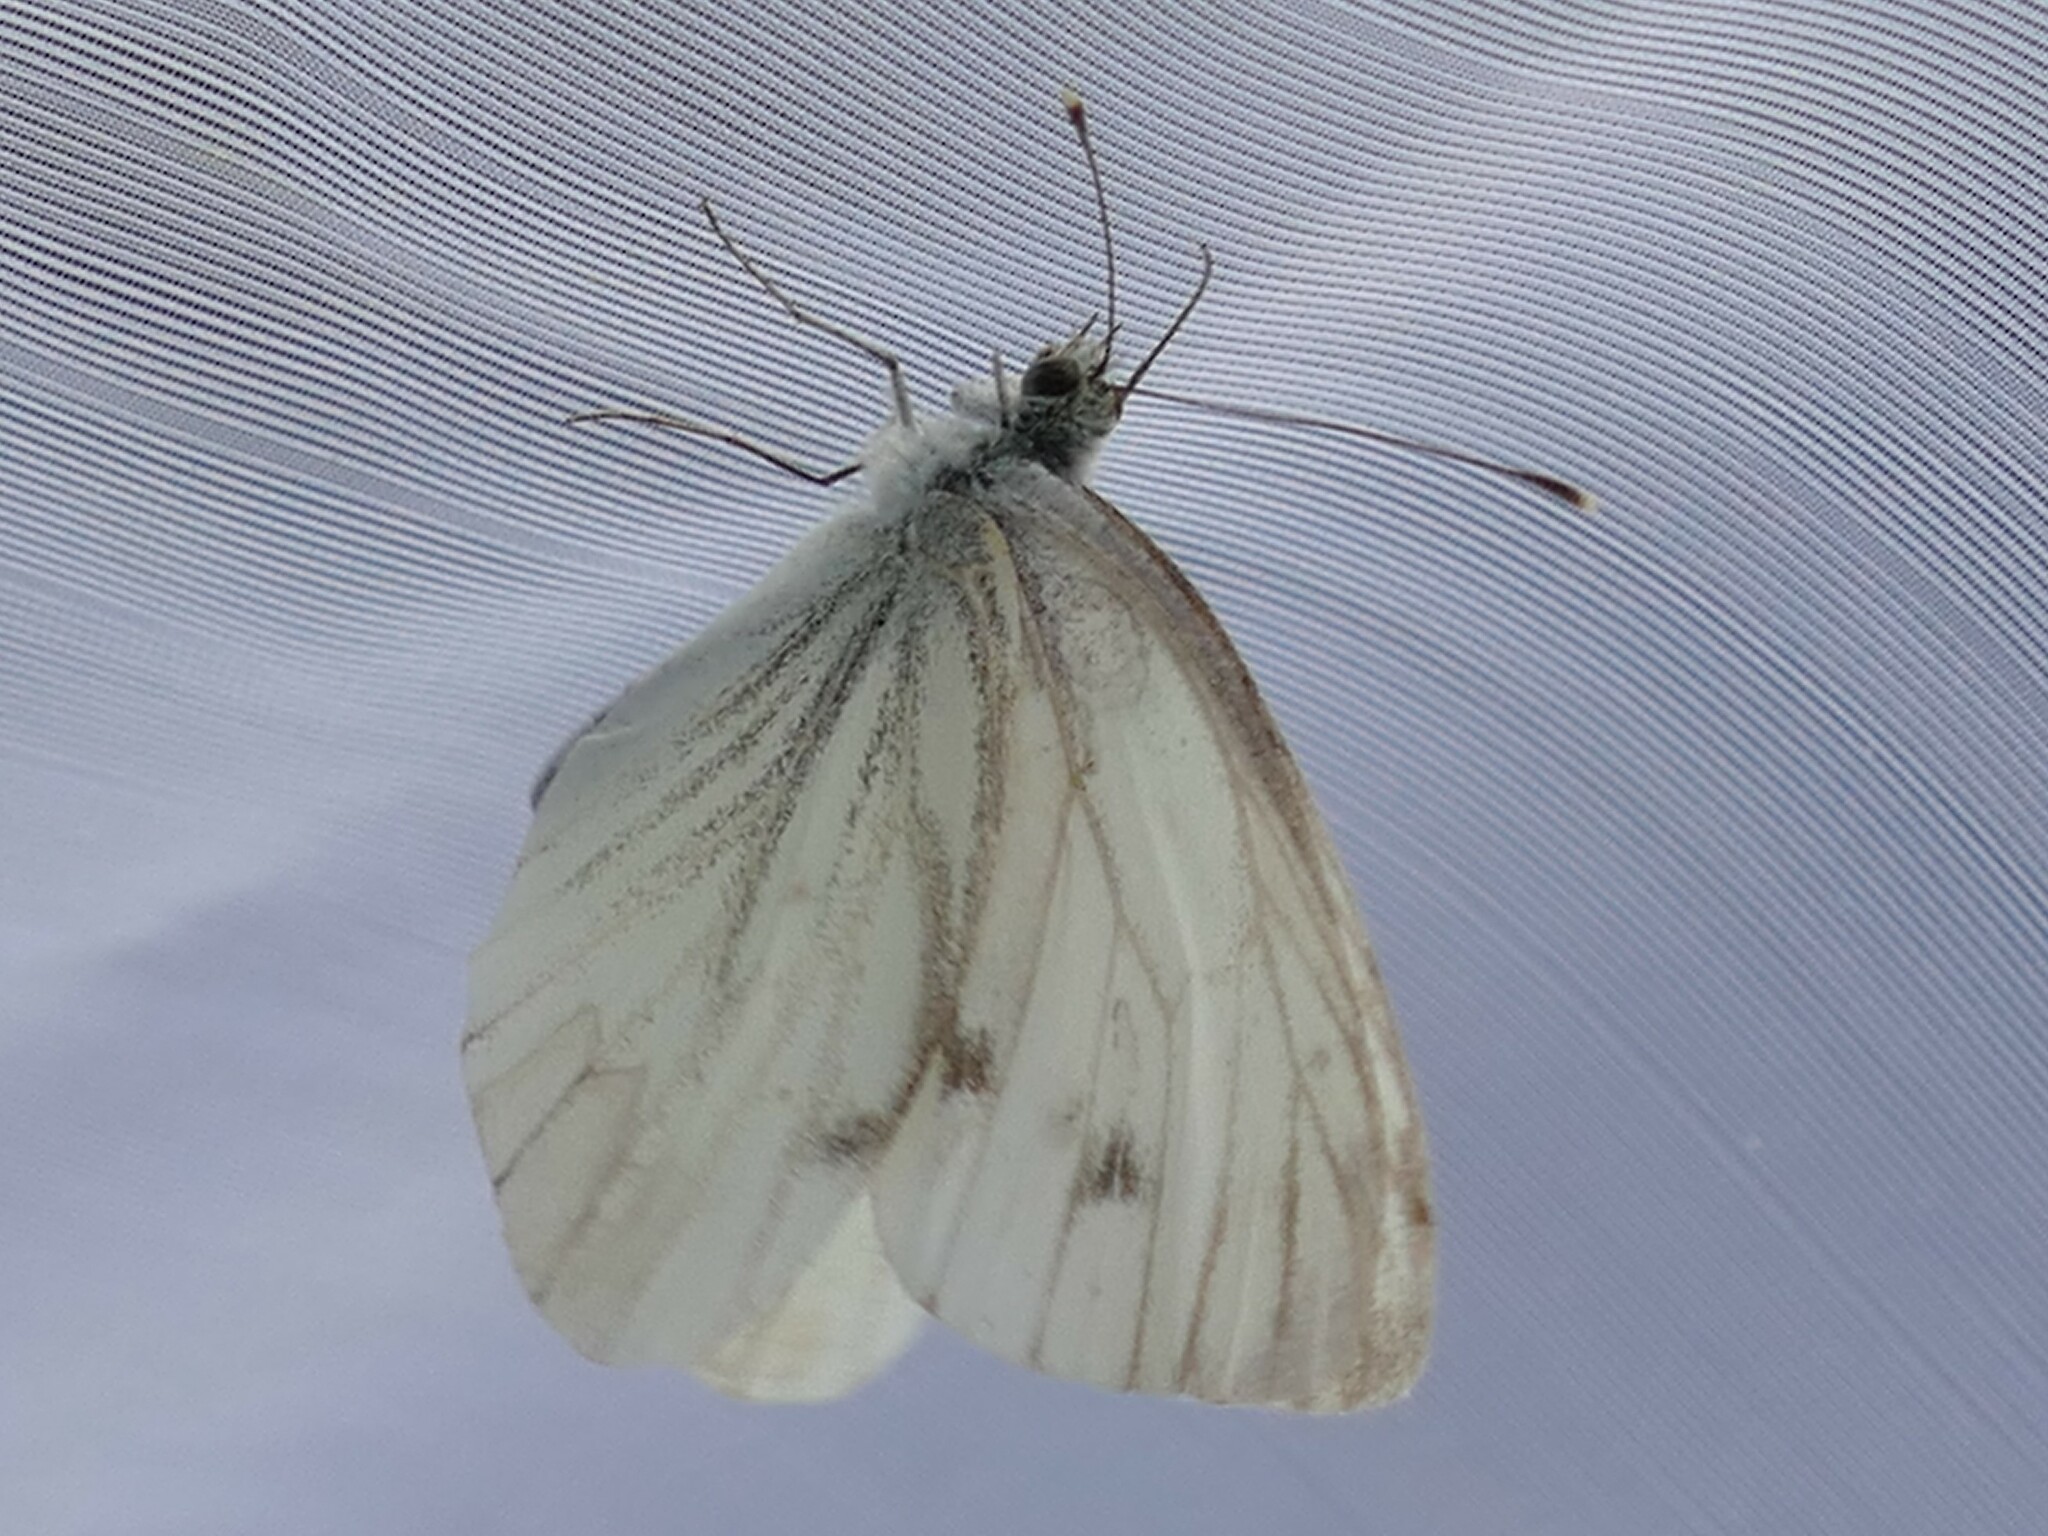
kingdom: Animalia
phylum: Arthropoda
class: Insecta
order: Lepidoptera
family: Pieridae
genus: Pieris
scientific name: Pieris napi
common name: Green-veined white
